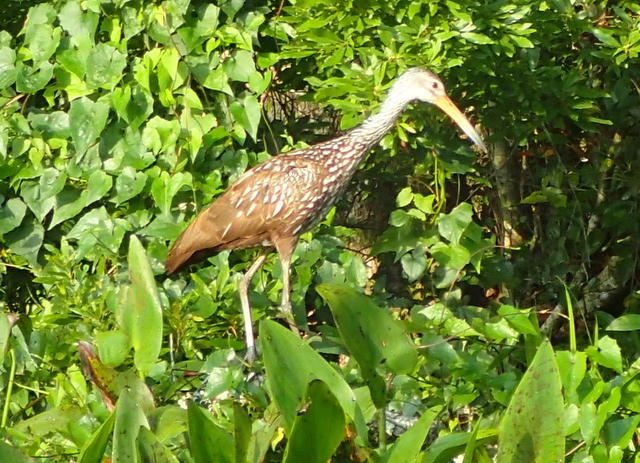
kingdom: Animalia
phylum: Chordata
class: Aves
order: Gruiformes
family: Aramidae
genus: Aramus
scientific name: Aramus guarauna
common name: Limpkin
